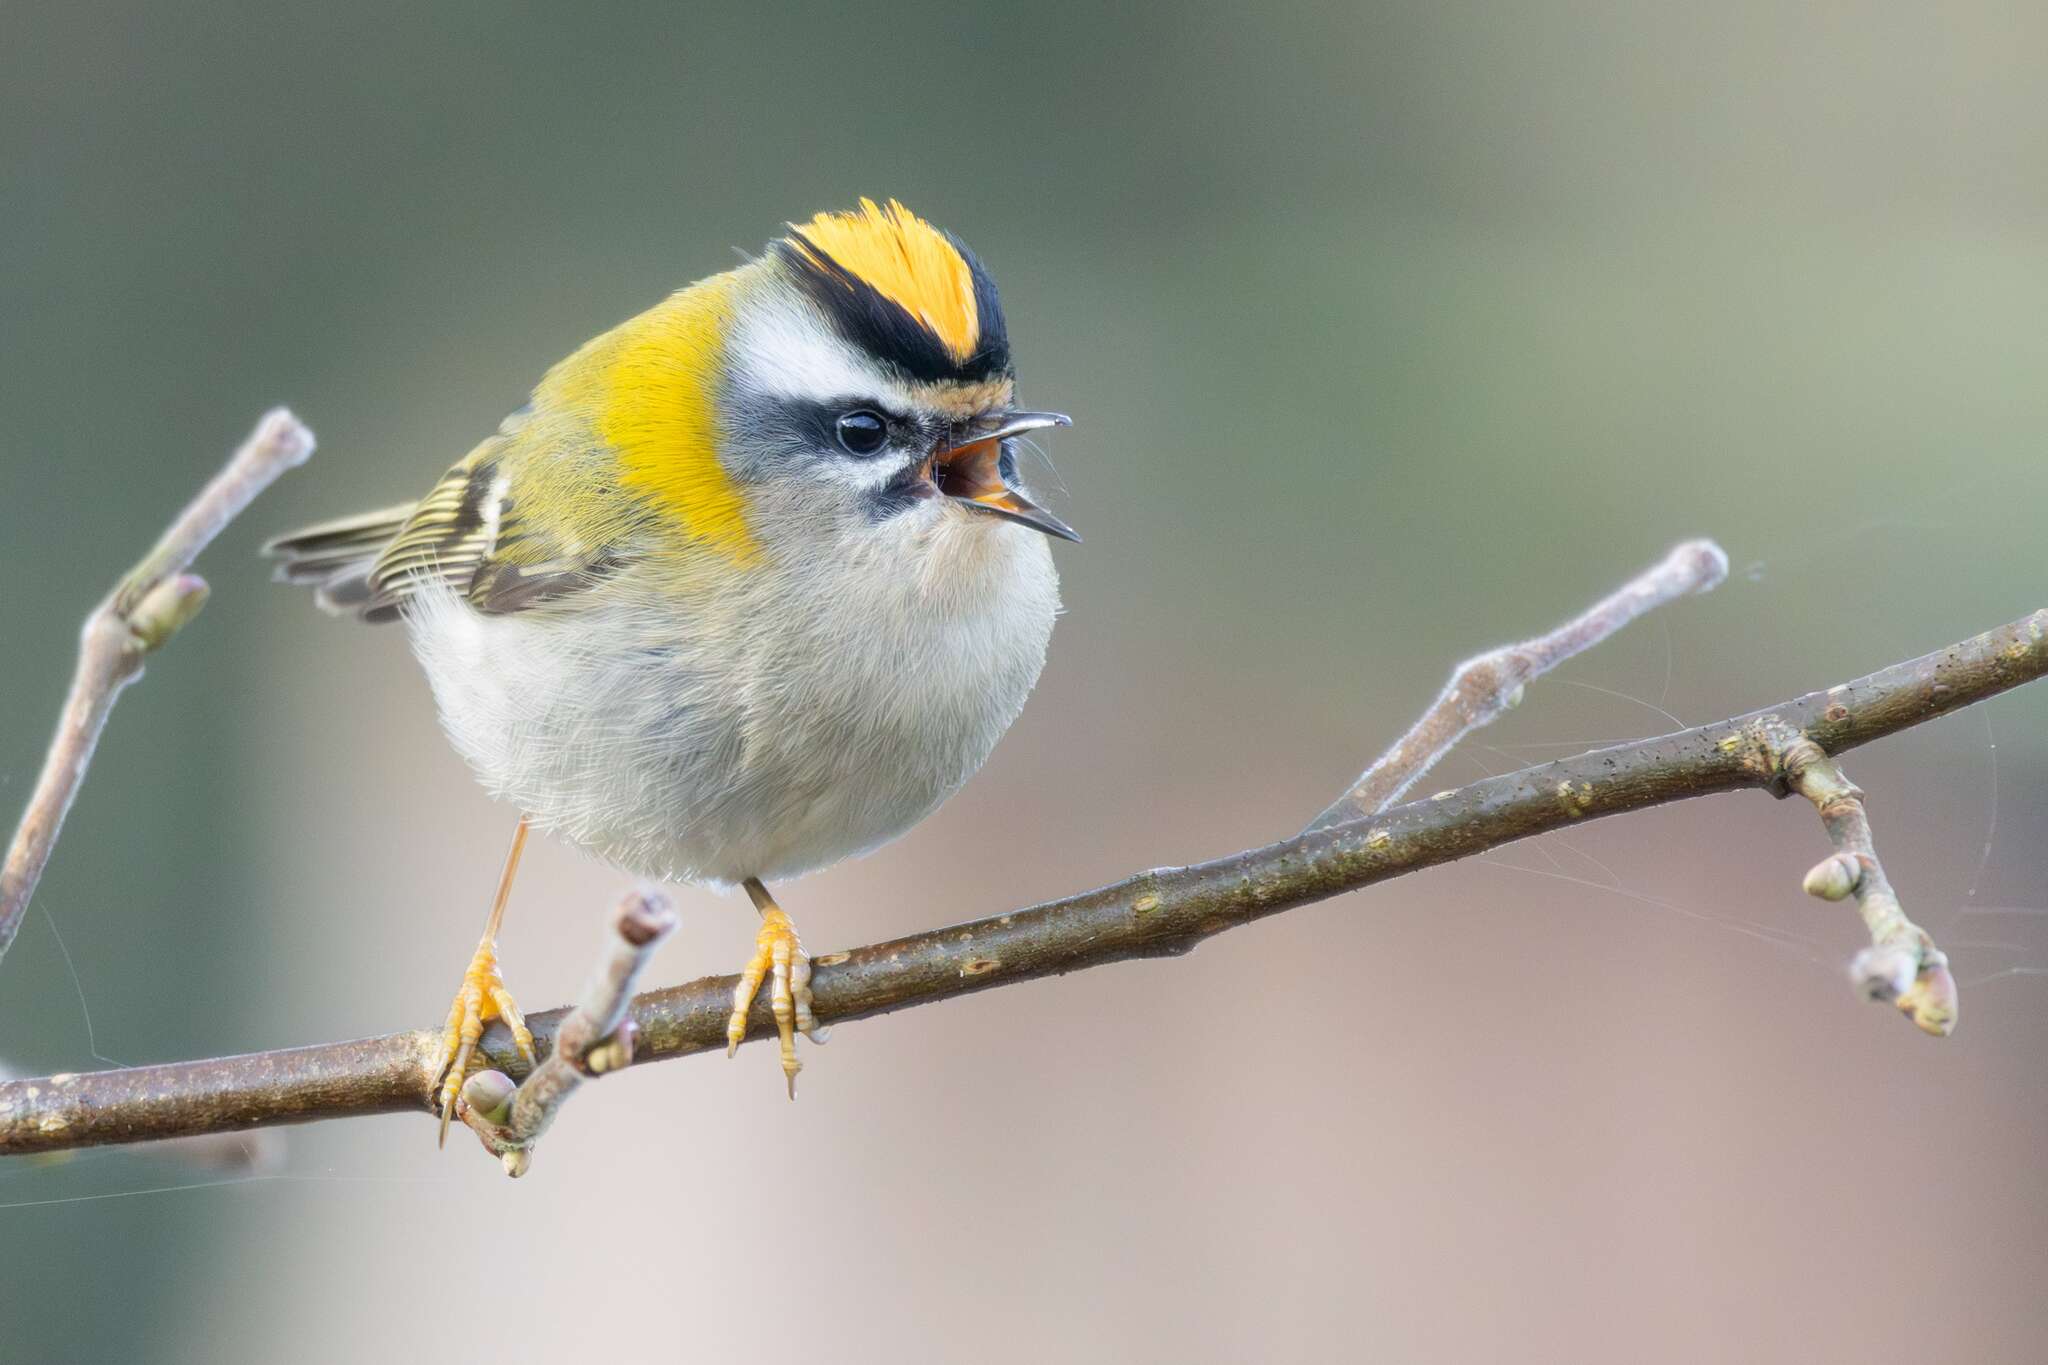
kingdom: Animalia
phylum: Chordata
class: Aves
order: Passeriformes
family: Regulidae
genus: Regulus
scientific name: Regulus ignicapilla
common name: Firecrest
